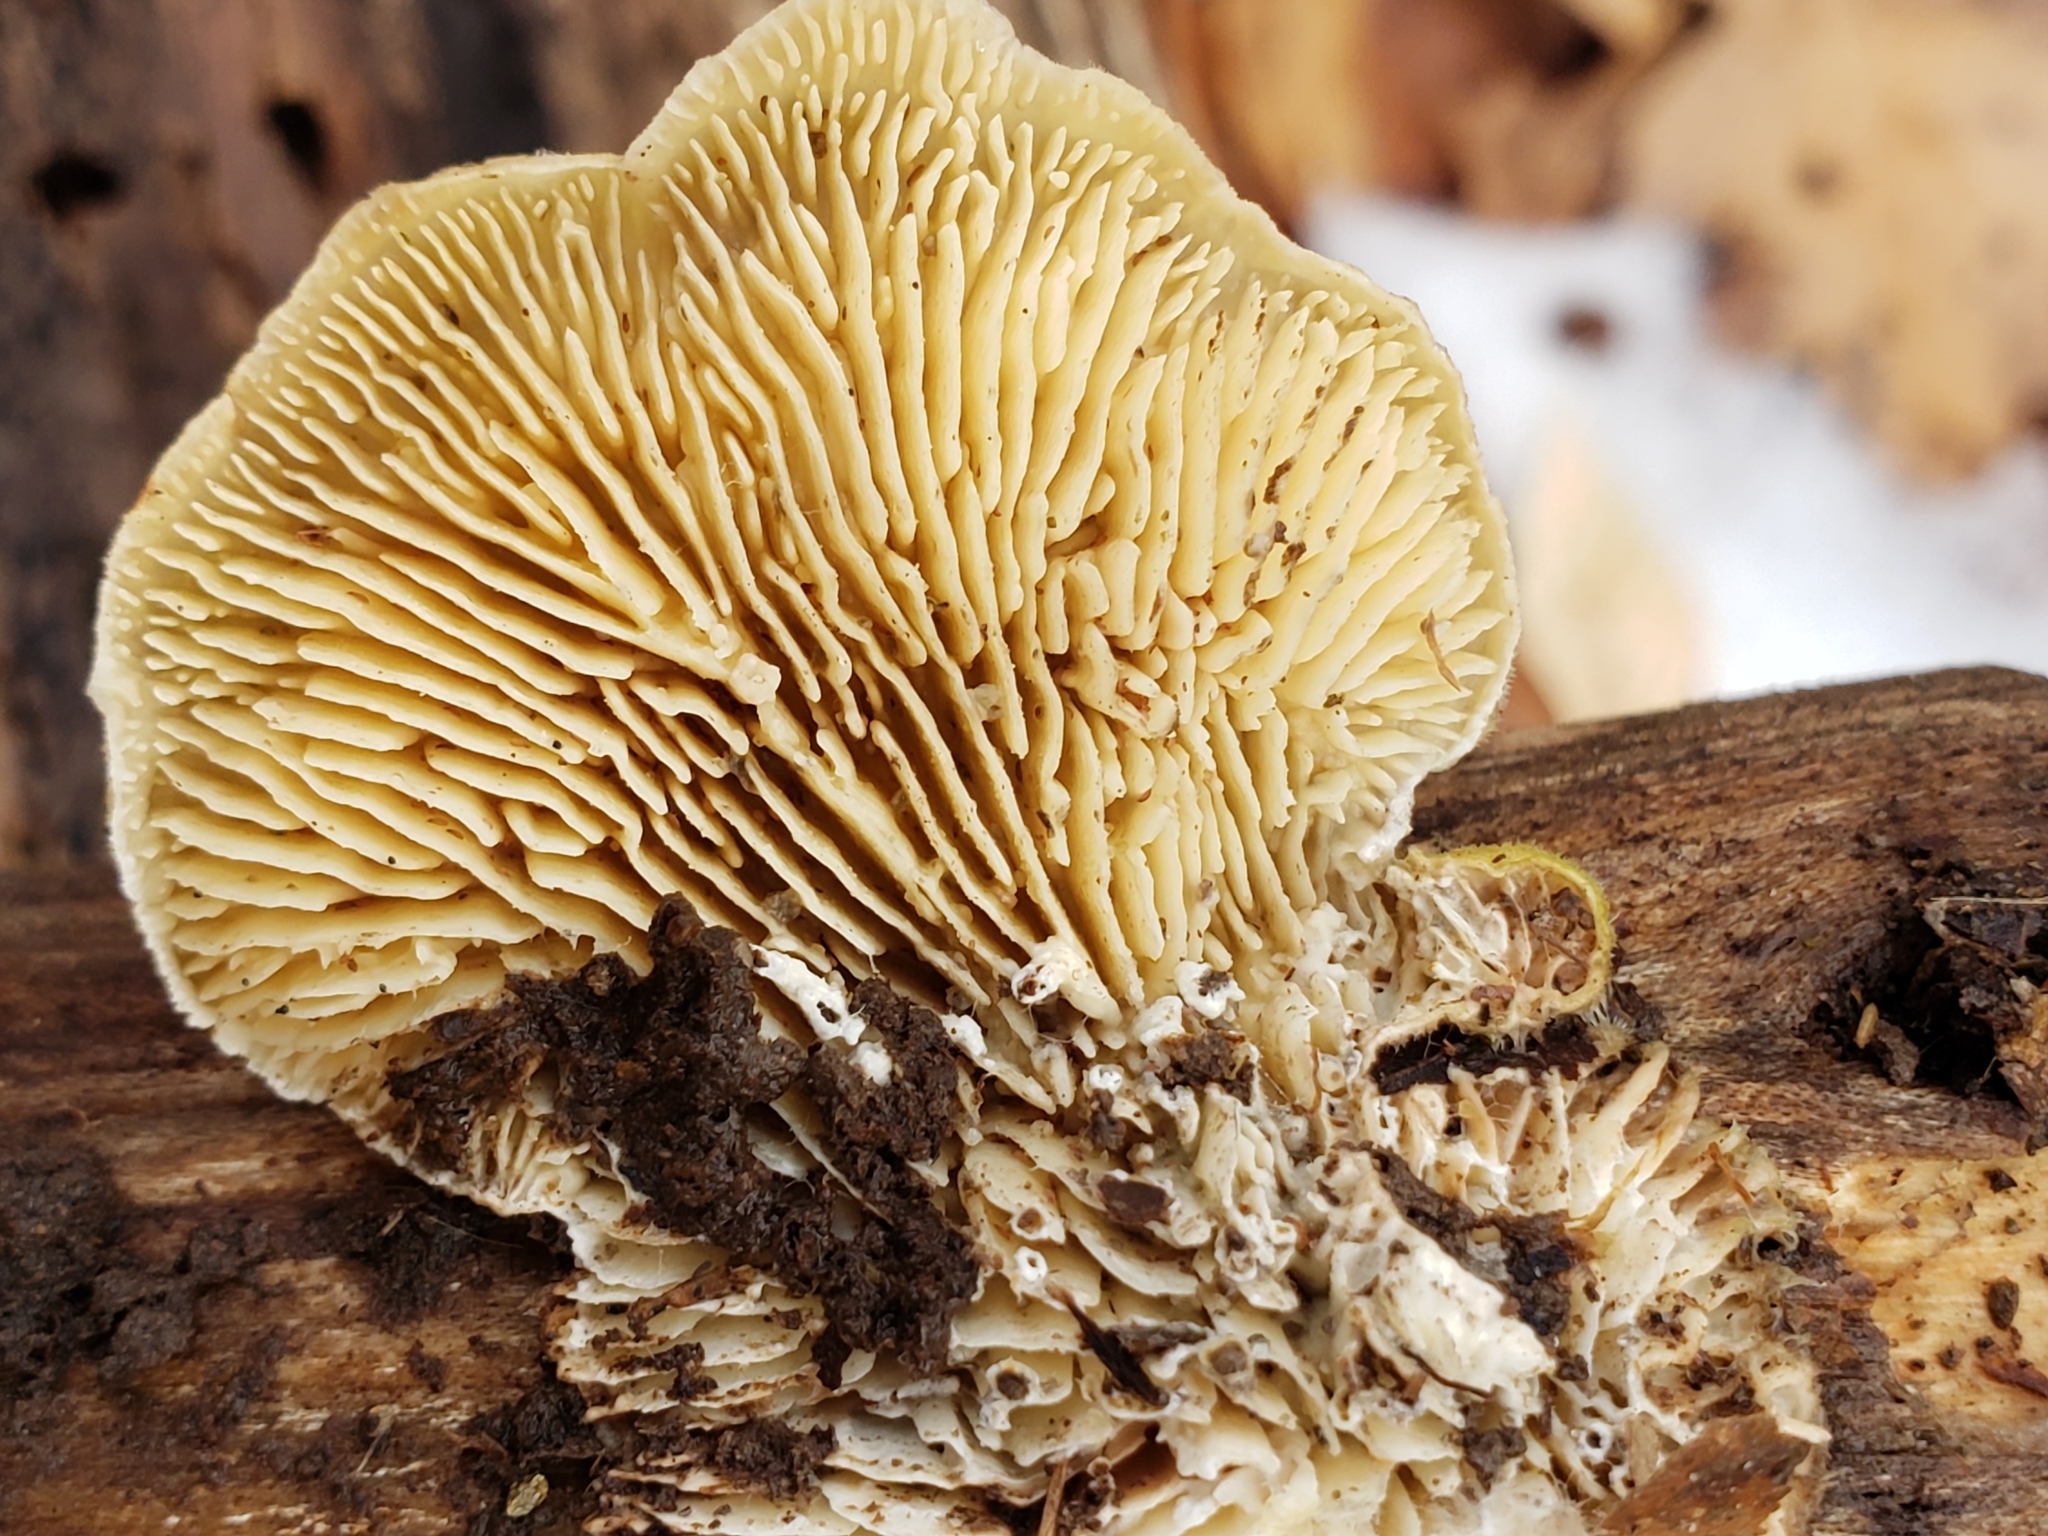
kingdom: Fungi
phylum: Basidiomycota
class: Agaricomycetes
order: Polyporales
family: Polyporaceae
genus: Lenzites
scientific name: Lenzites betulinus
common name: Birch mazegill
